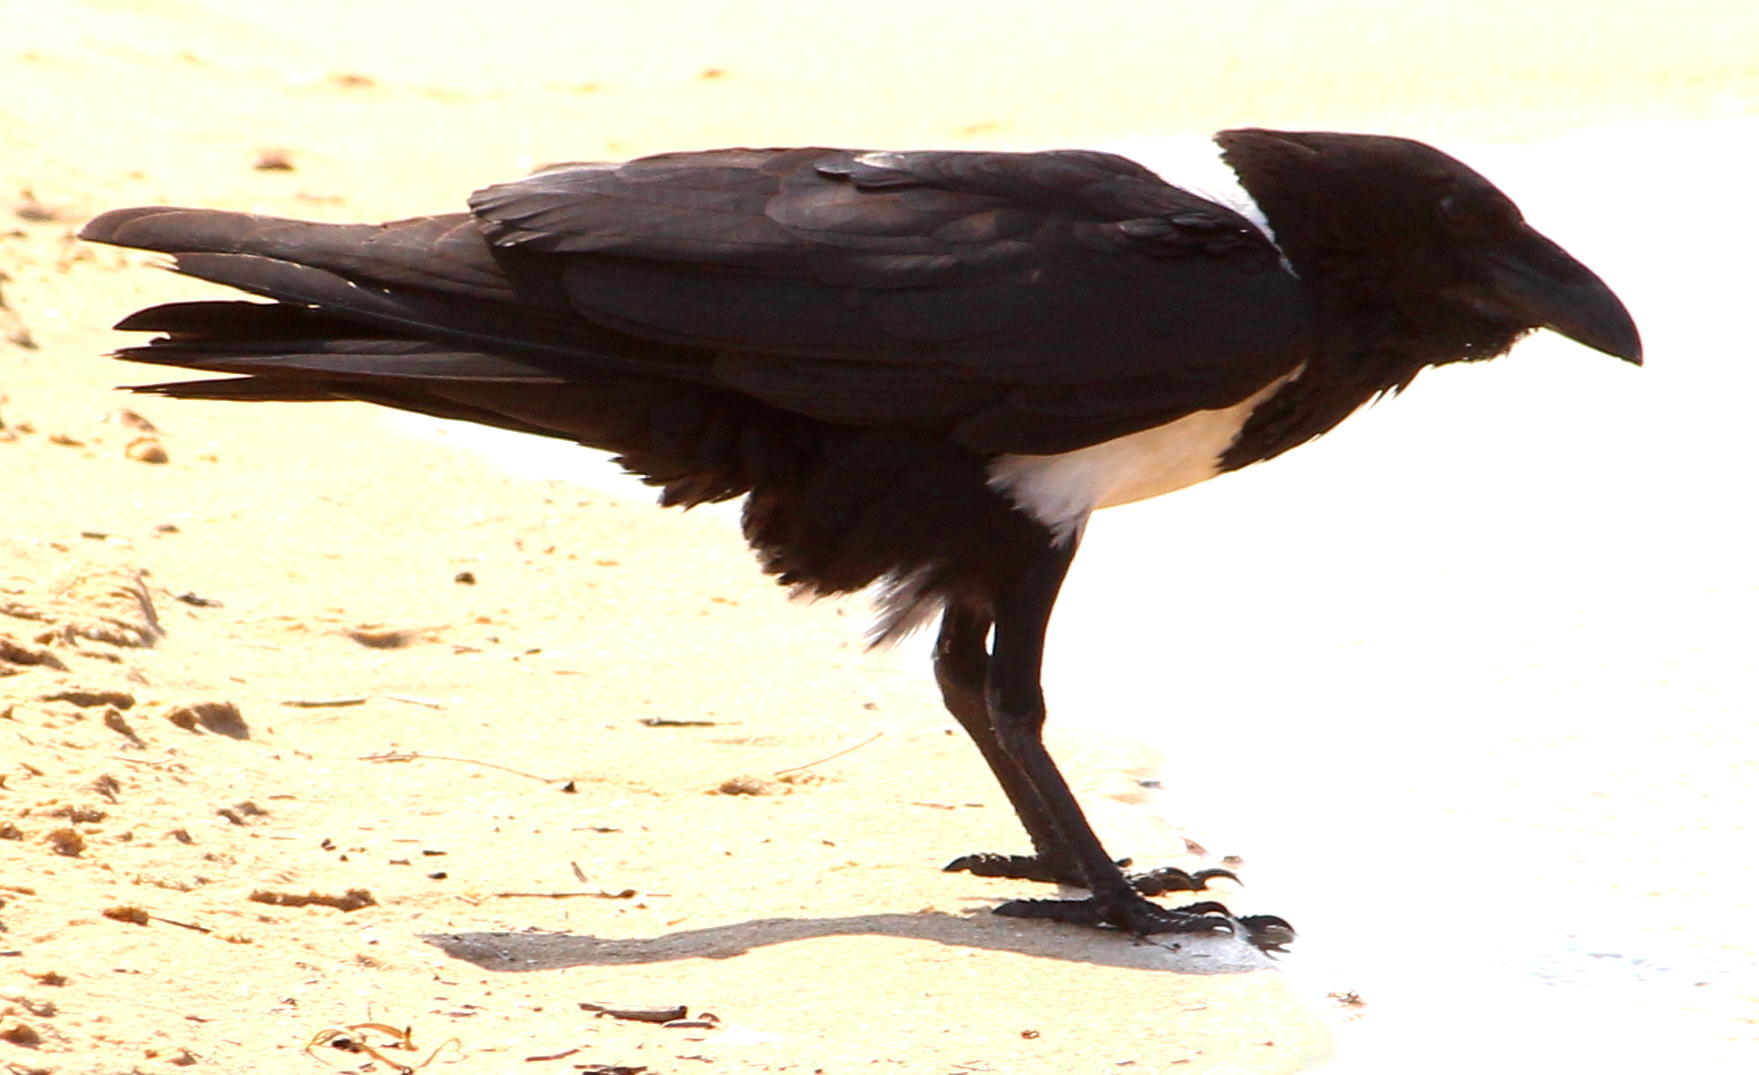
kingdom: Animalia
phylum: Chordata
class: Aves
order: Passeriformes
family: Corvidae
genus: Corvus
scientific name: Corvus albus
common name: Pied crow
